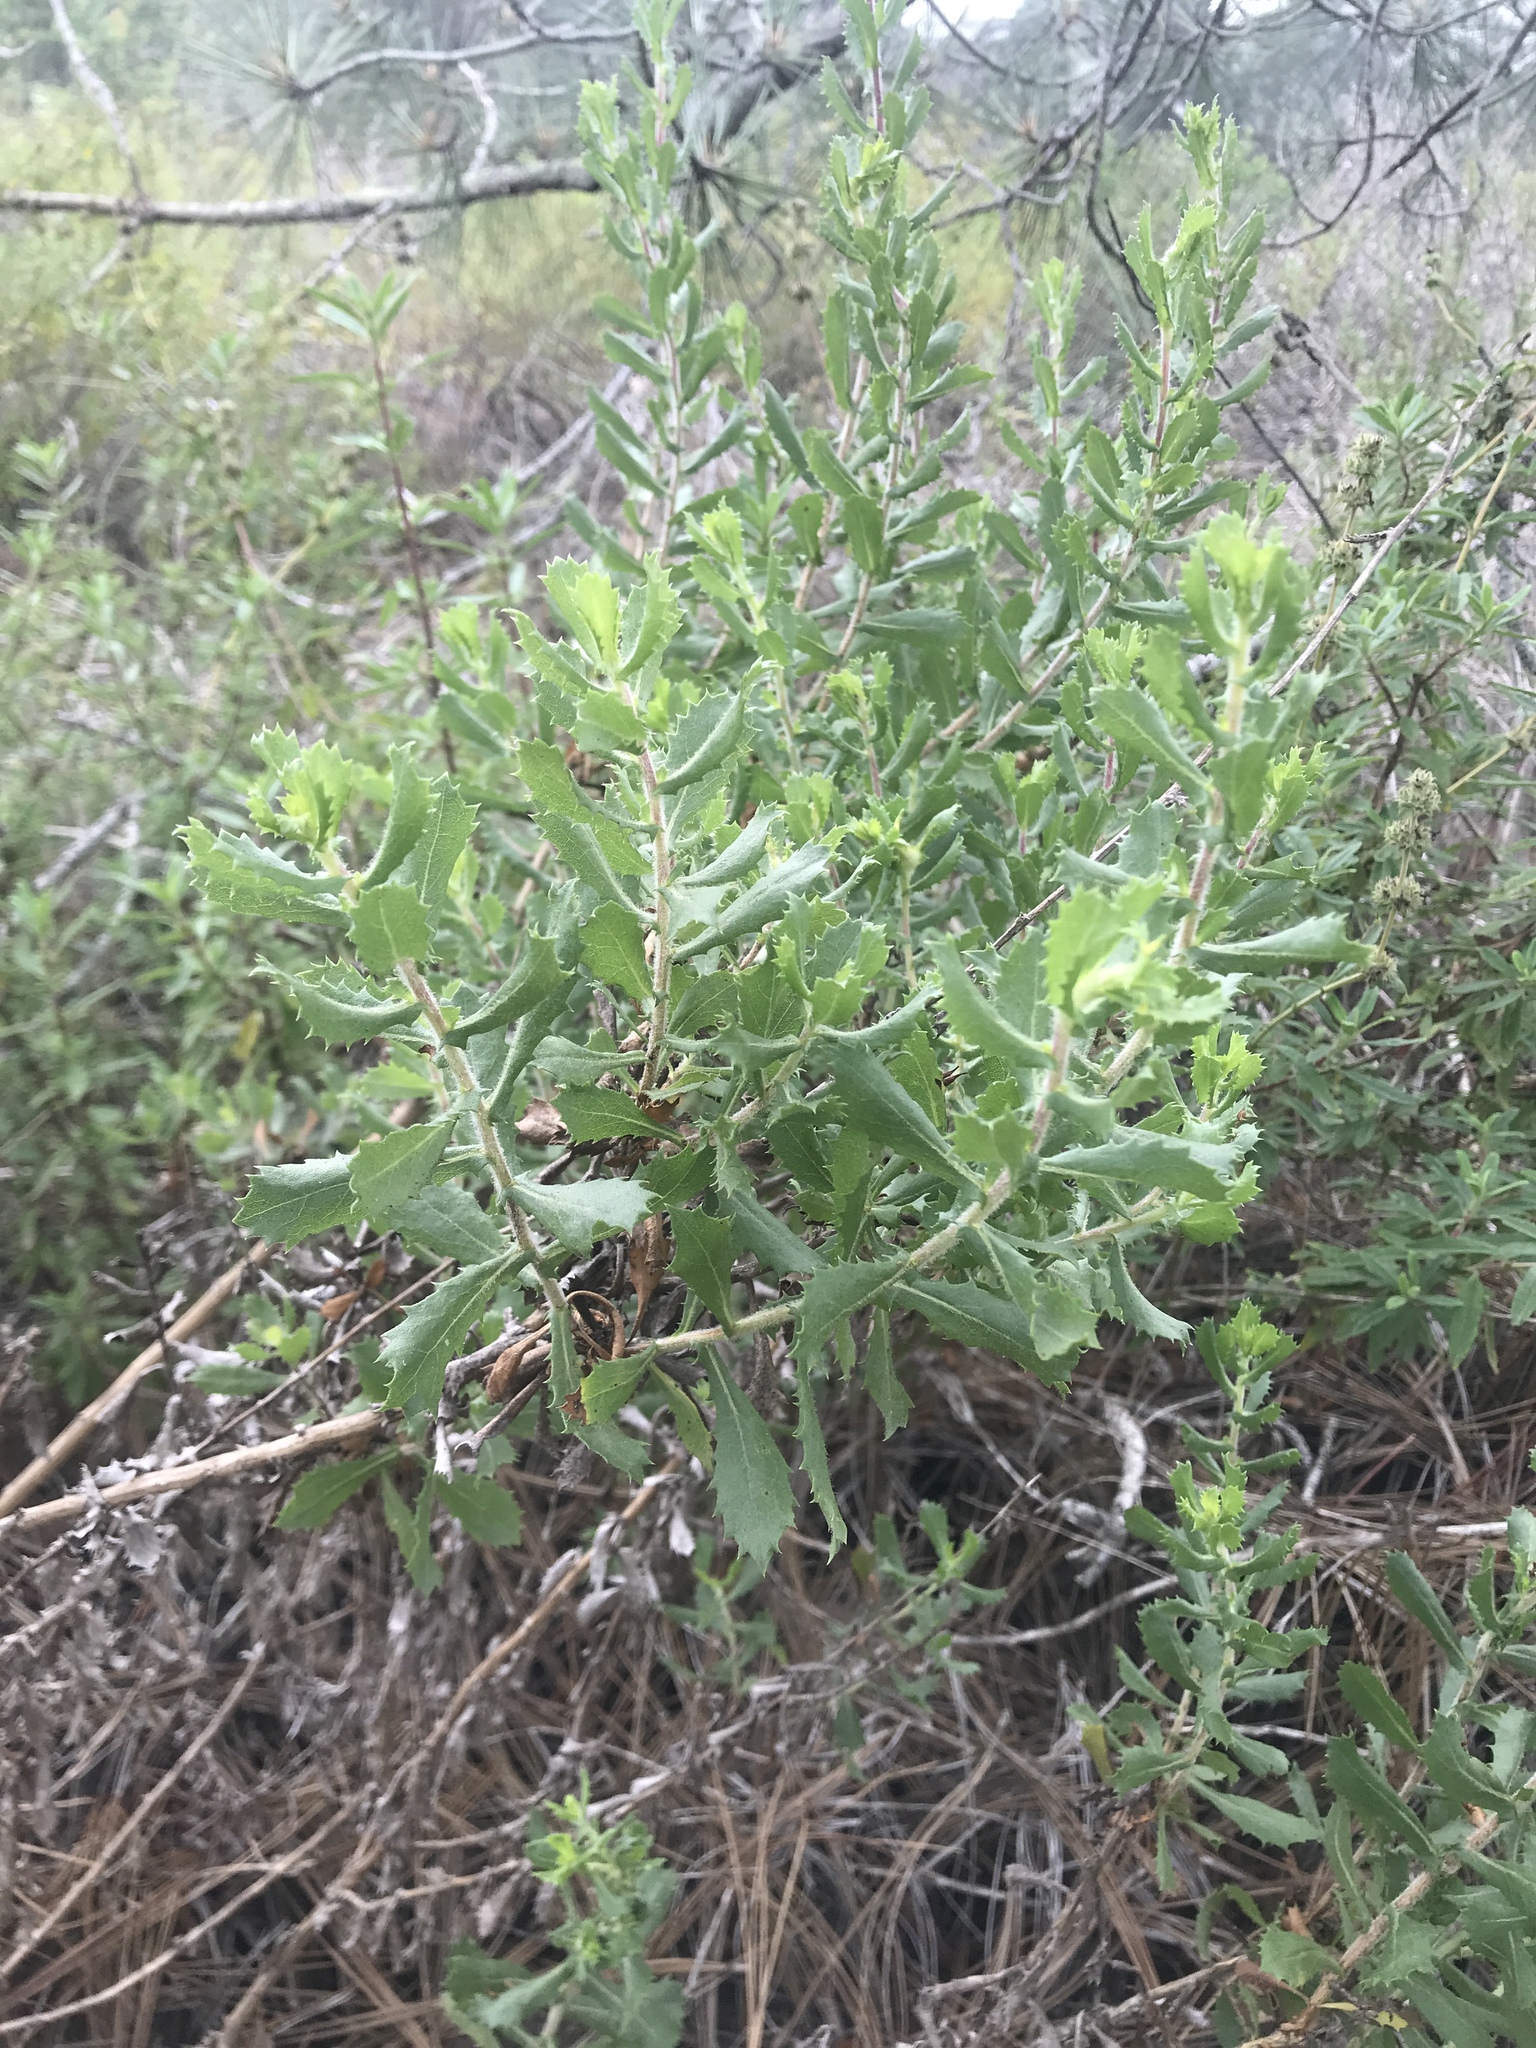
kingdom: Plantae
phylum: Tracheophyta
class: Magnoliopsida
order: Asterales
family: Asteraceae
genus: Hazardia
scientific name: Hazardia squarrosa
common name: Saw-tooth goldenbush
